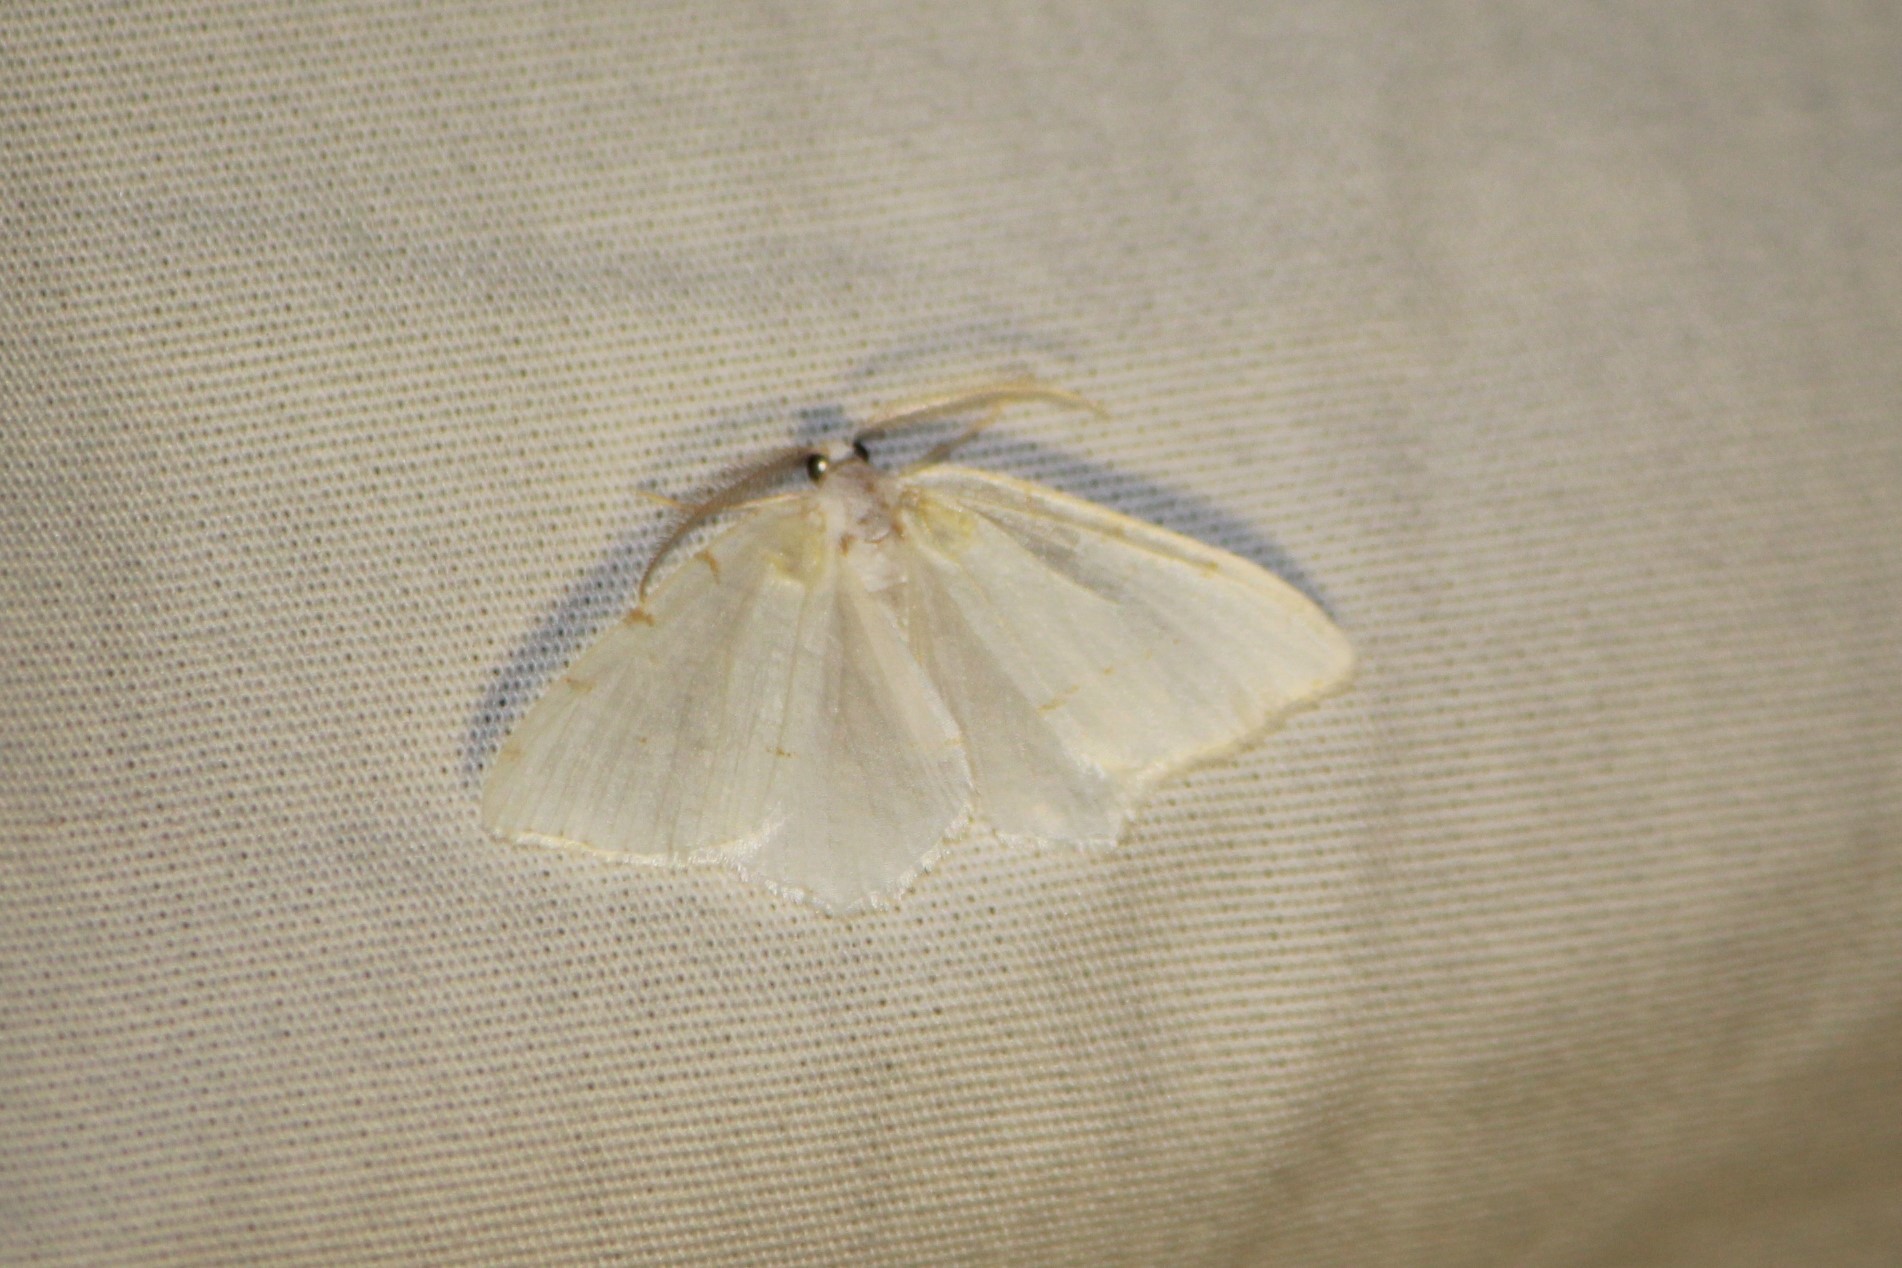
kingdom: Animalia
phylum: Arthropoda
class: Insecta
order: Lepidoptera
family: Geometridae
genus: Macaria
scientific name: Macaria pustularia
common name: Lesser maple spanworm moth
